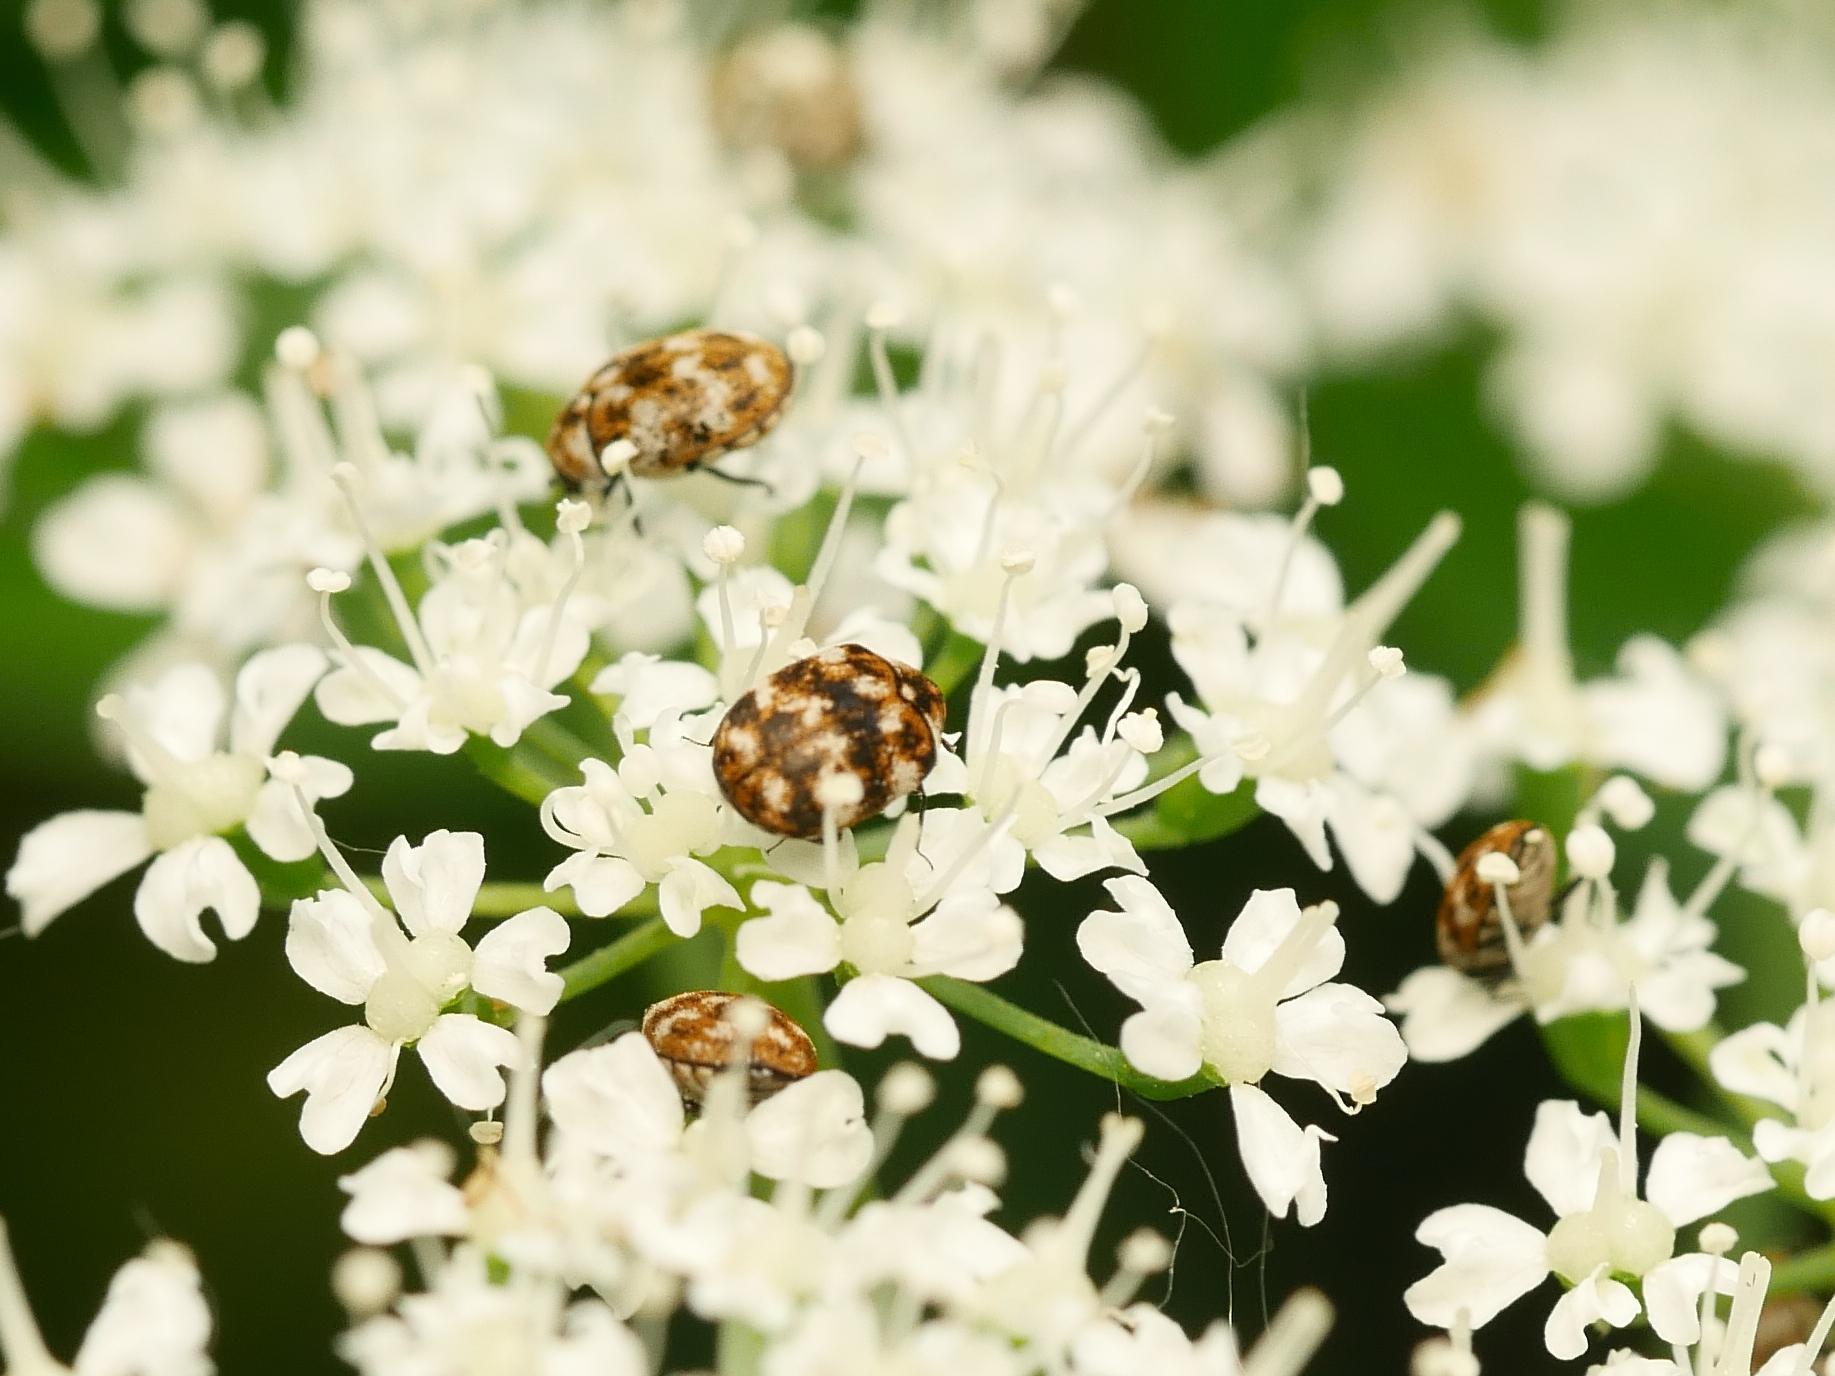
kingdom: Animalia
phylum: Arthropoda
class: Insecta
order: Coleoptera
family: Dermestidae
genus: Anthrenus
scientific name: Anthrenus verbasci
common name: Varied carpet beetle
